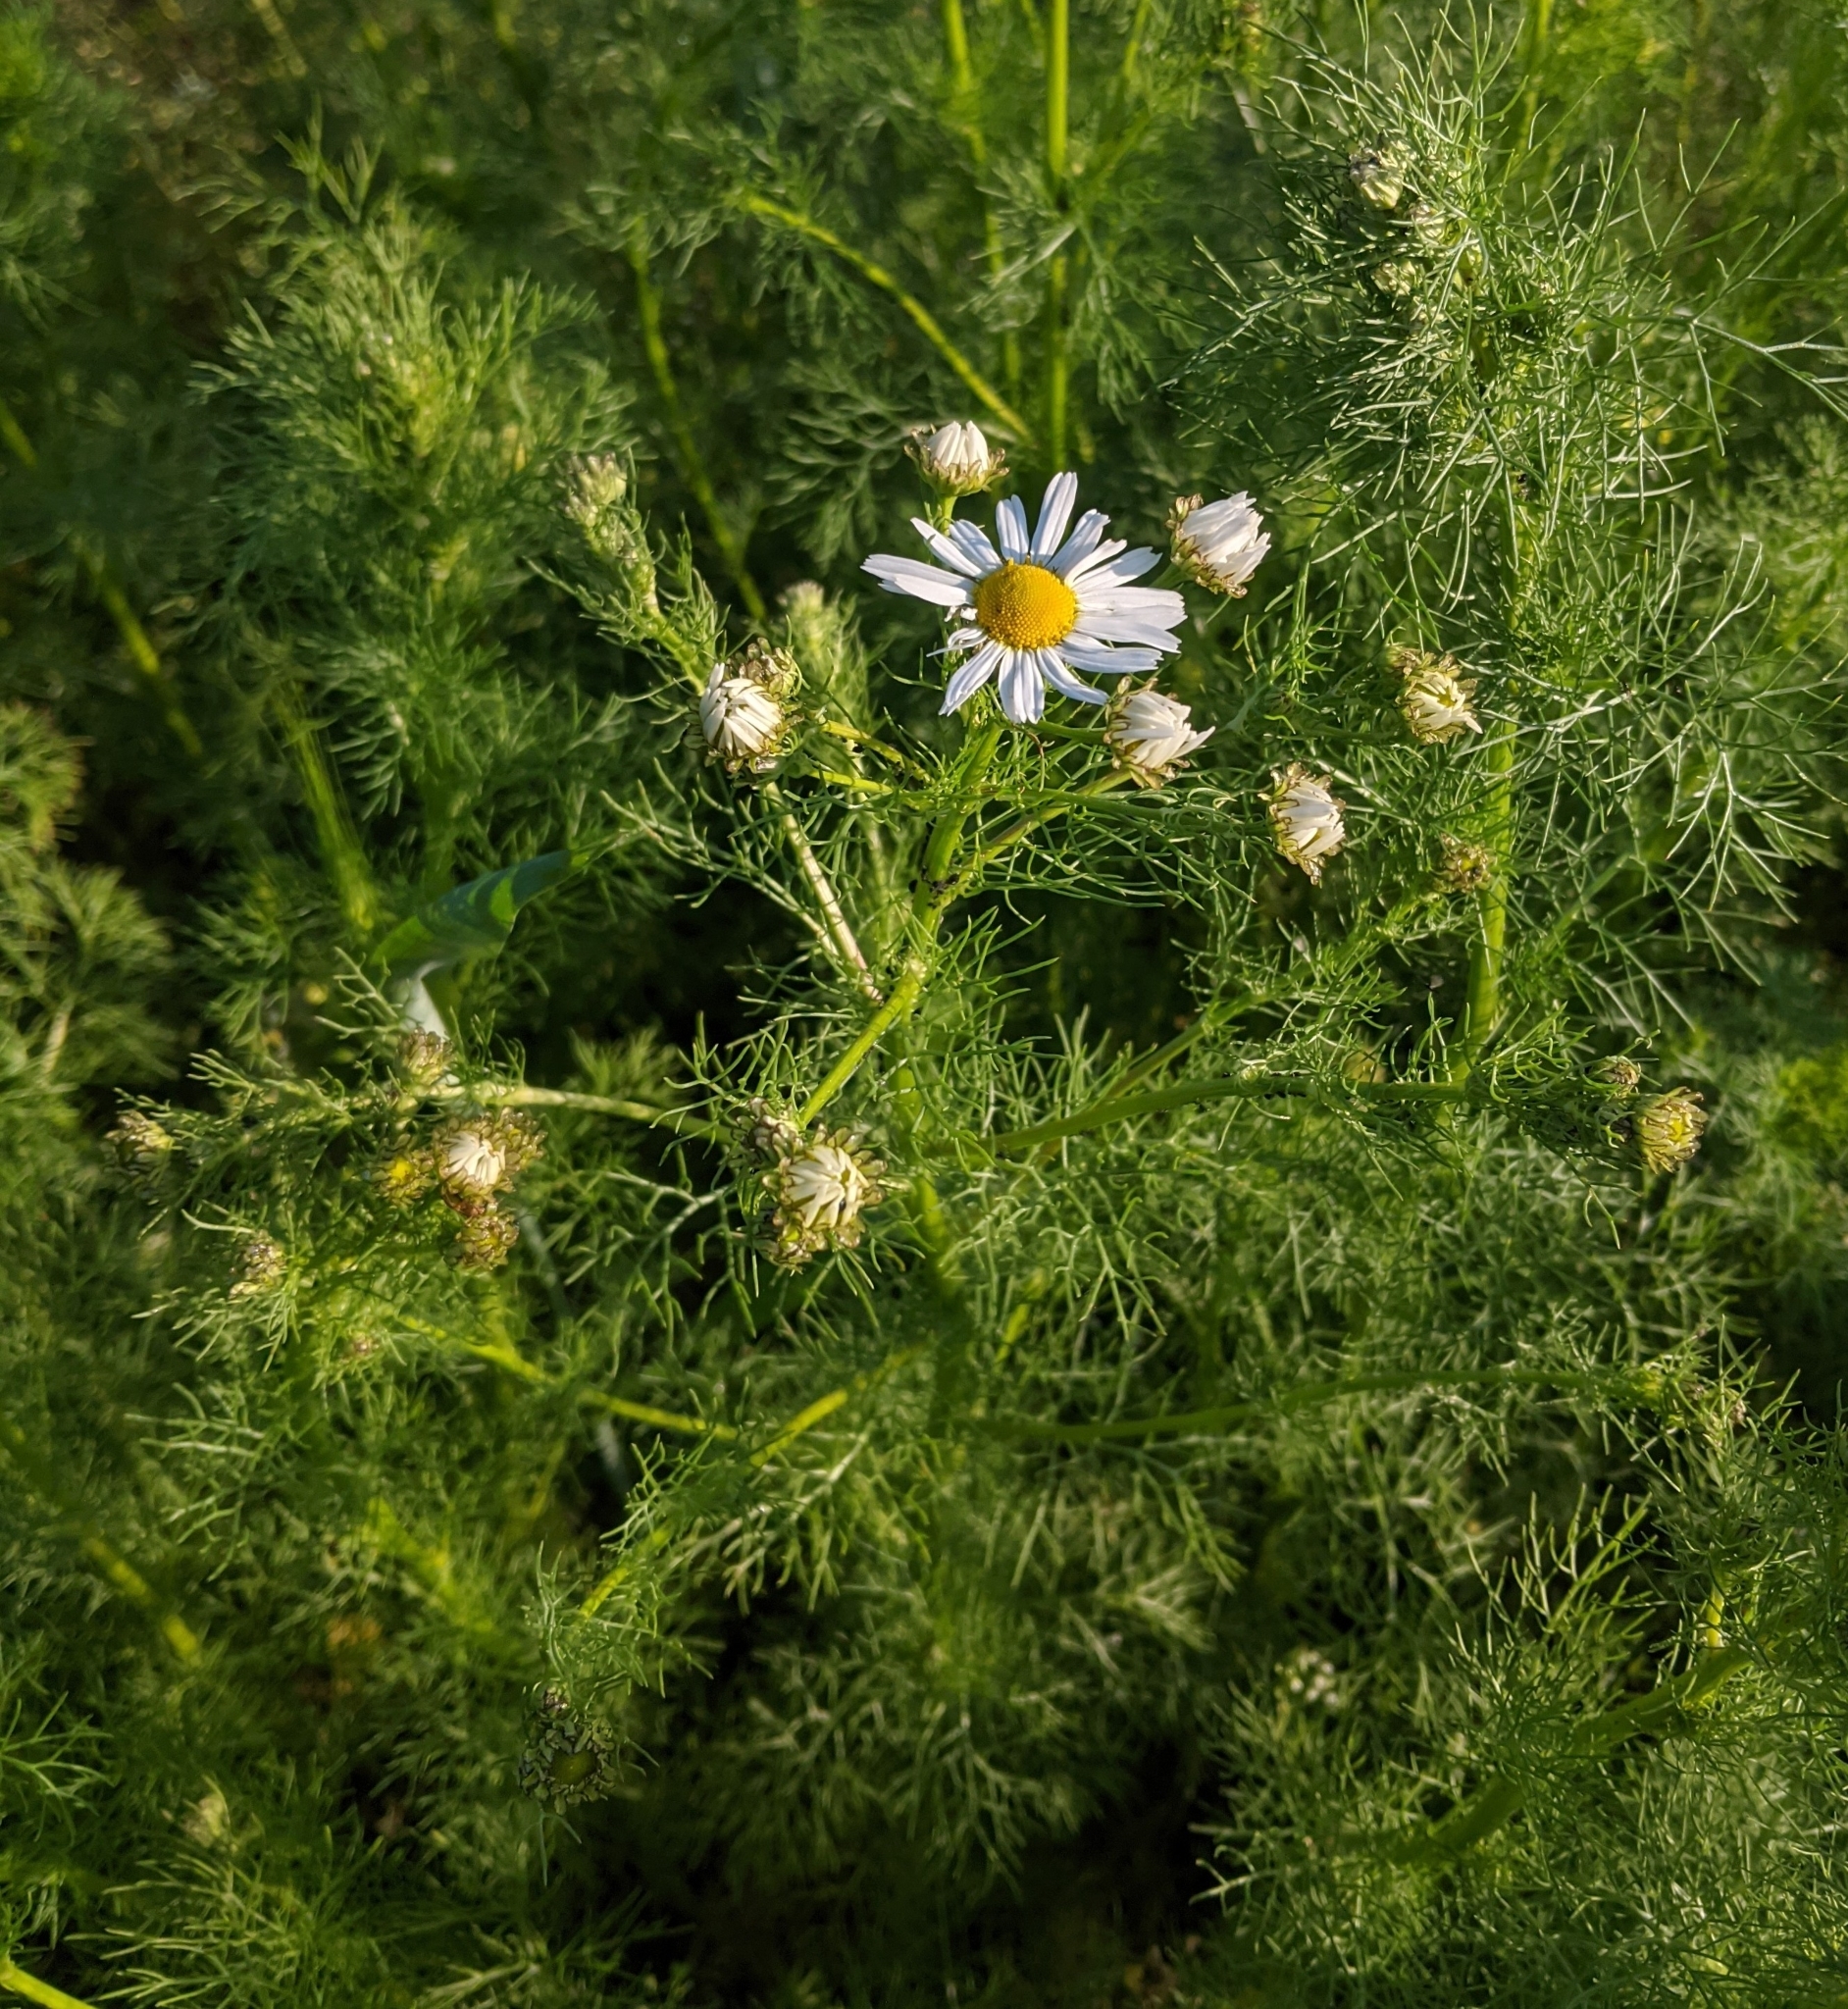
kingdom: Plantae
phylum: Tracheophyta
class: Magnoliopsida
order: Asterales
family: Asteraceae
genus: Tripleurospermum
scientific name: Tripleurospermum inodorum
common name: Scentless mayweed
